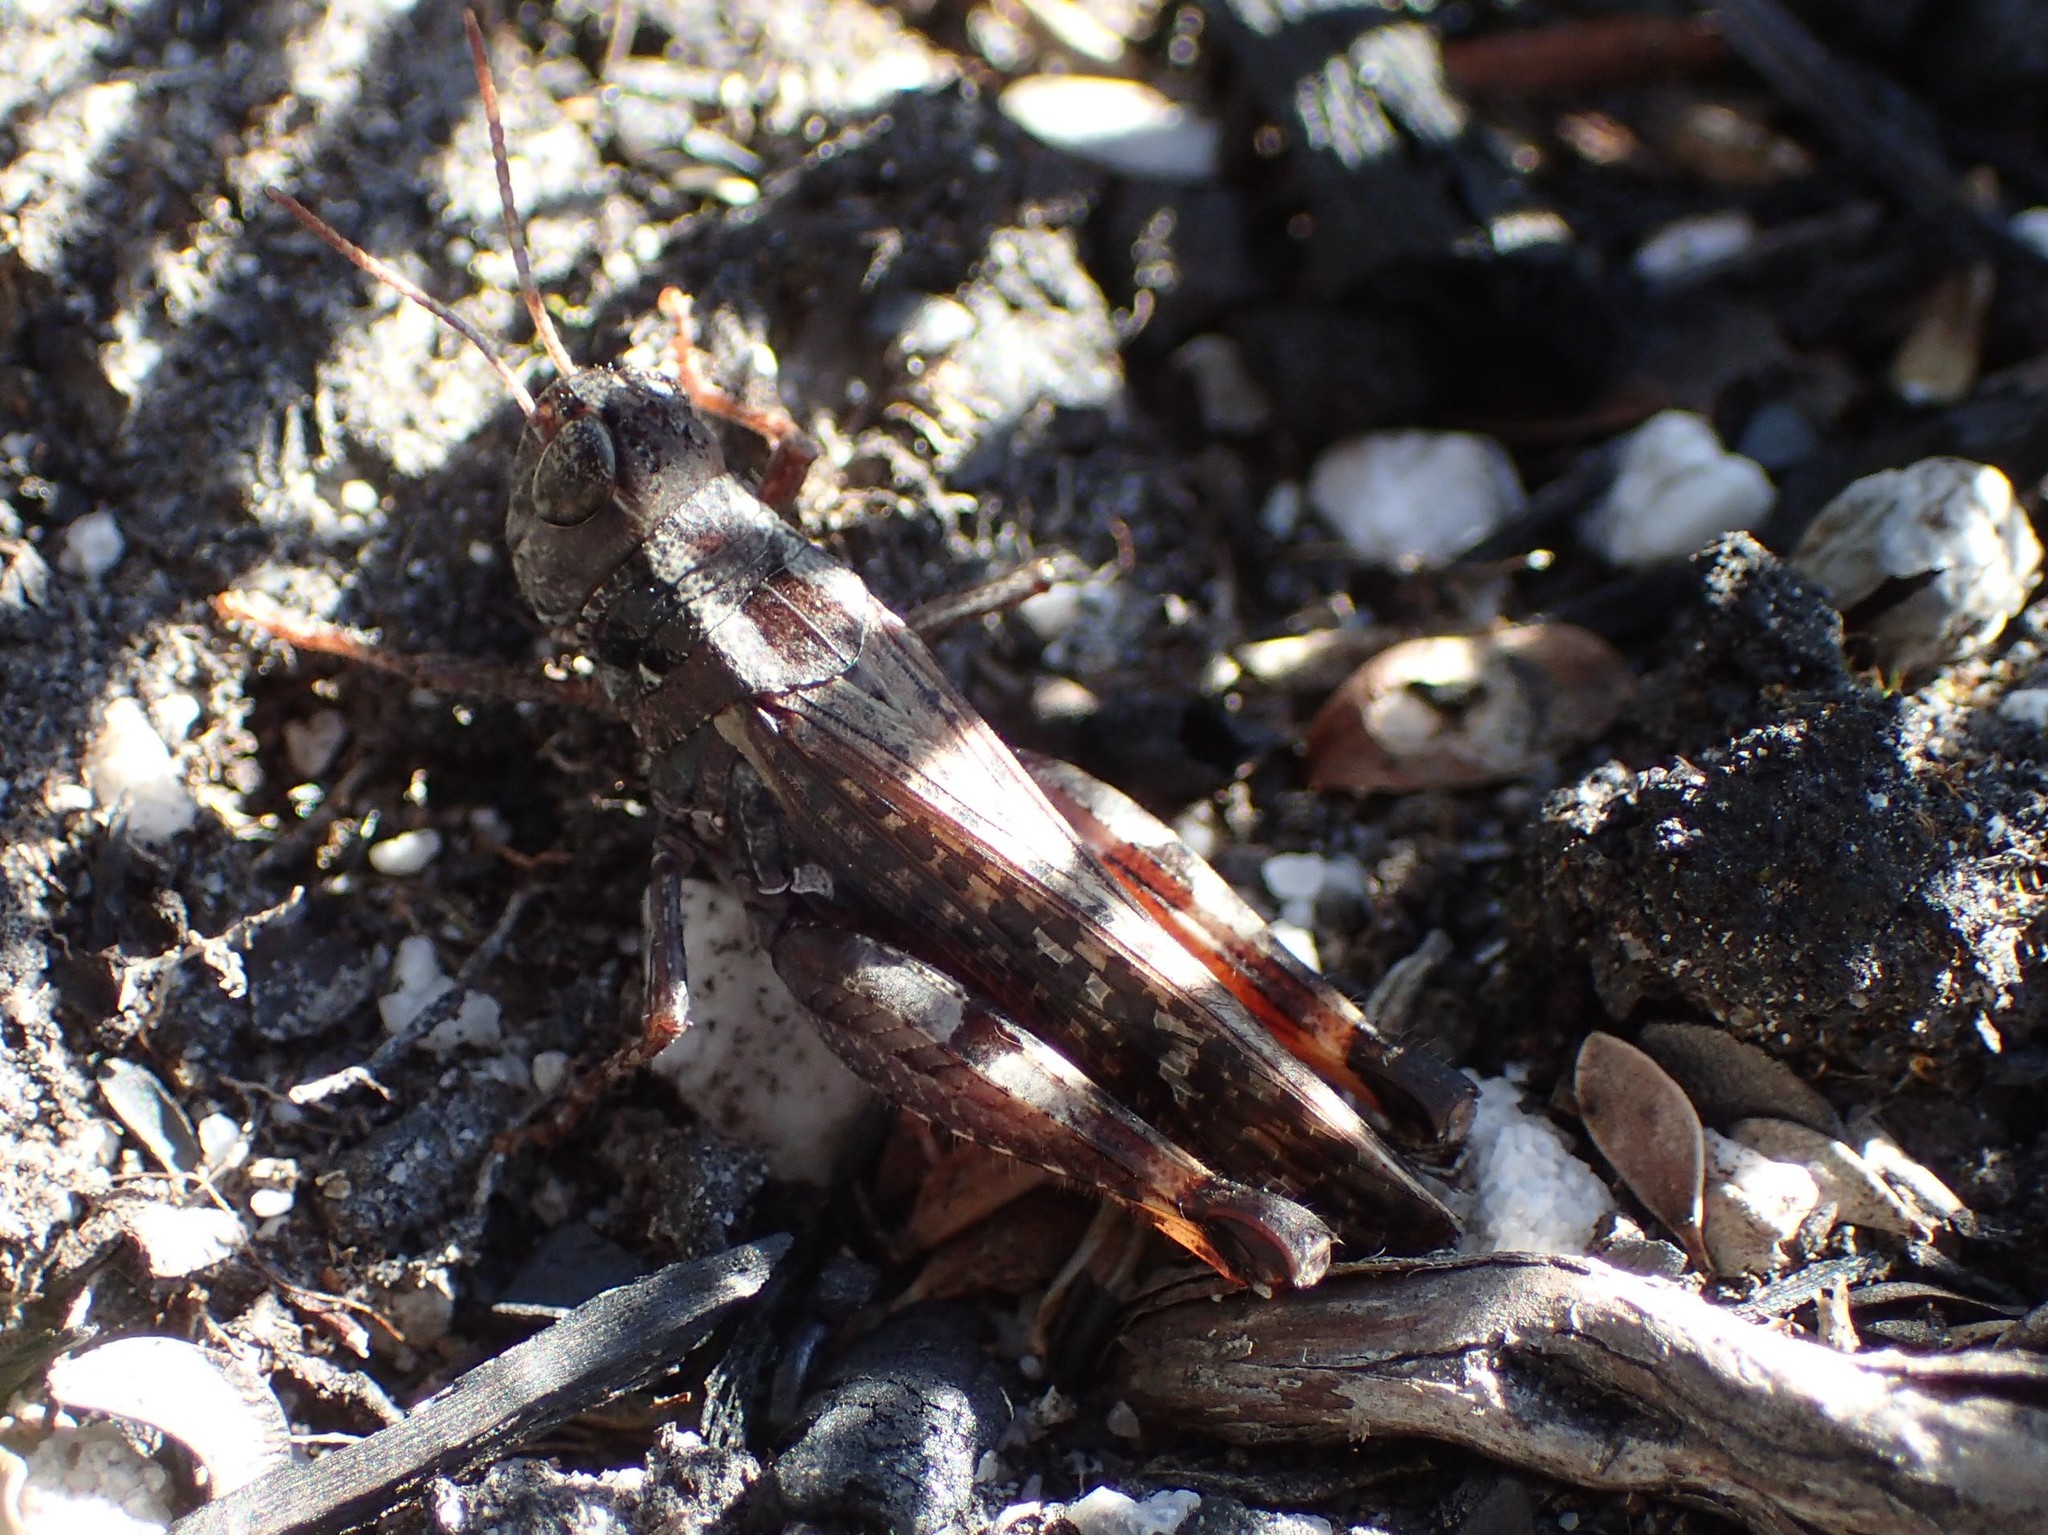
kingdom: Animalia
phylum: Arthropoda
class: Insecta
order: Orthoptera
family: Acrididae
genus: Exarna
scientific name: Exarna includens
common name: Red-legged exarna
